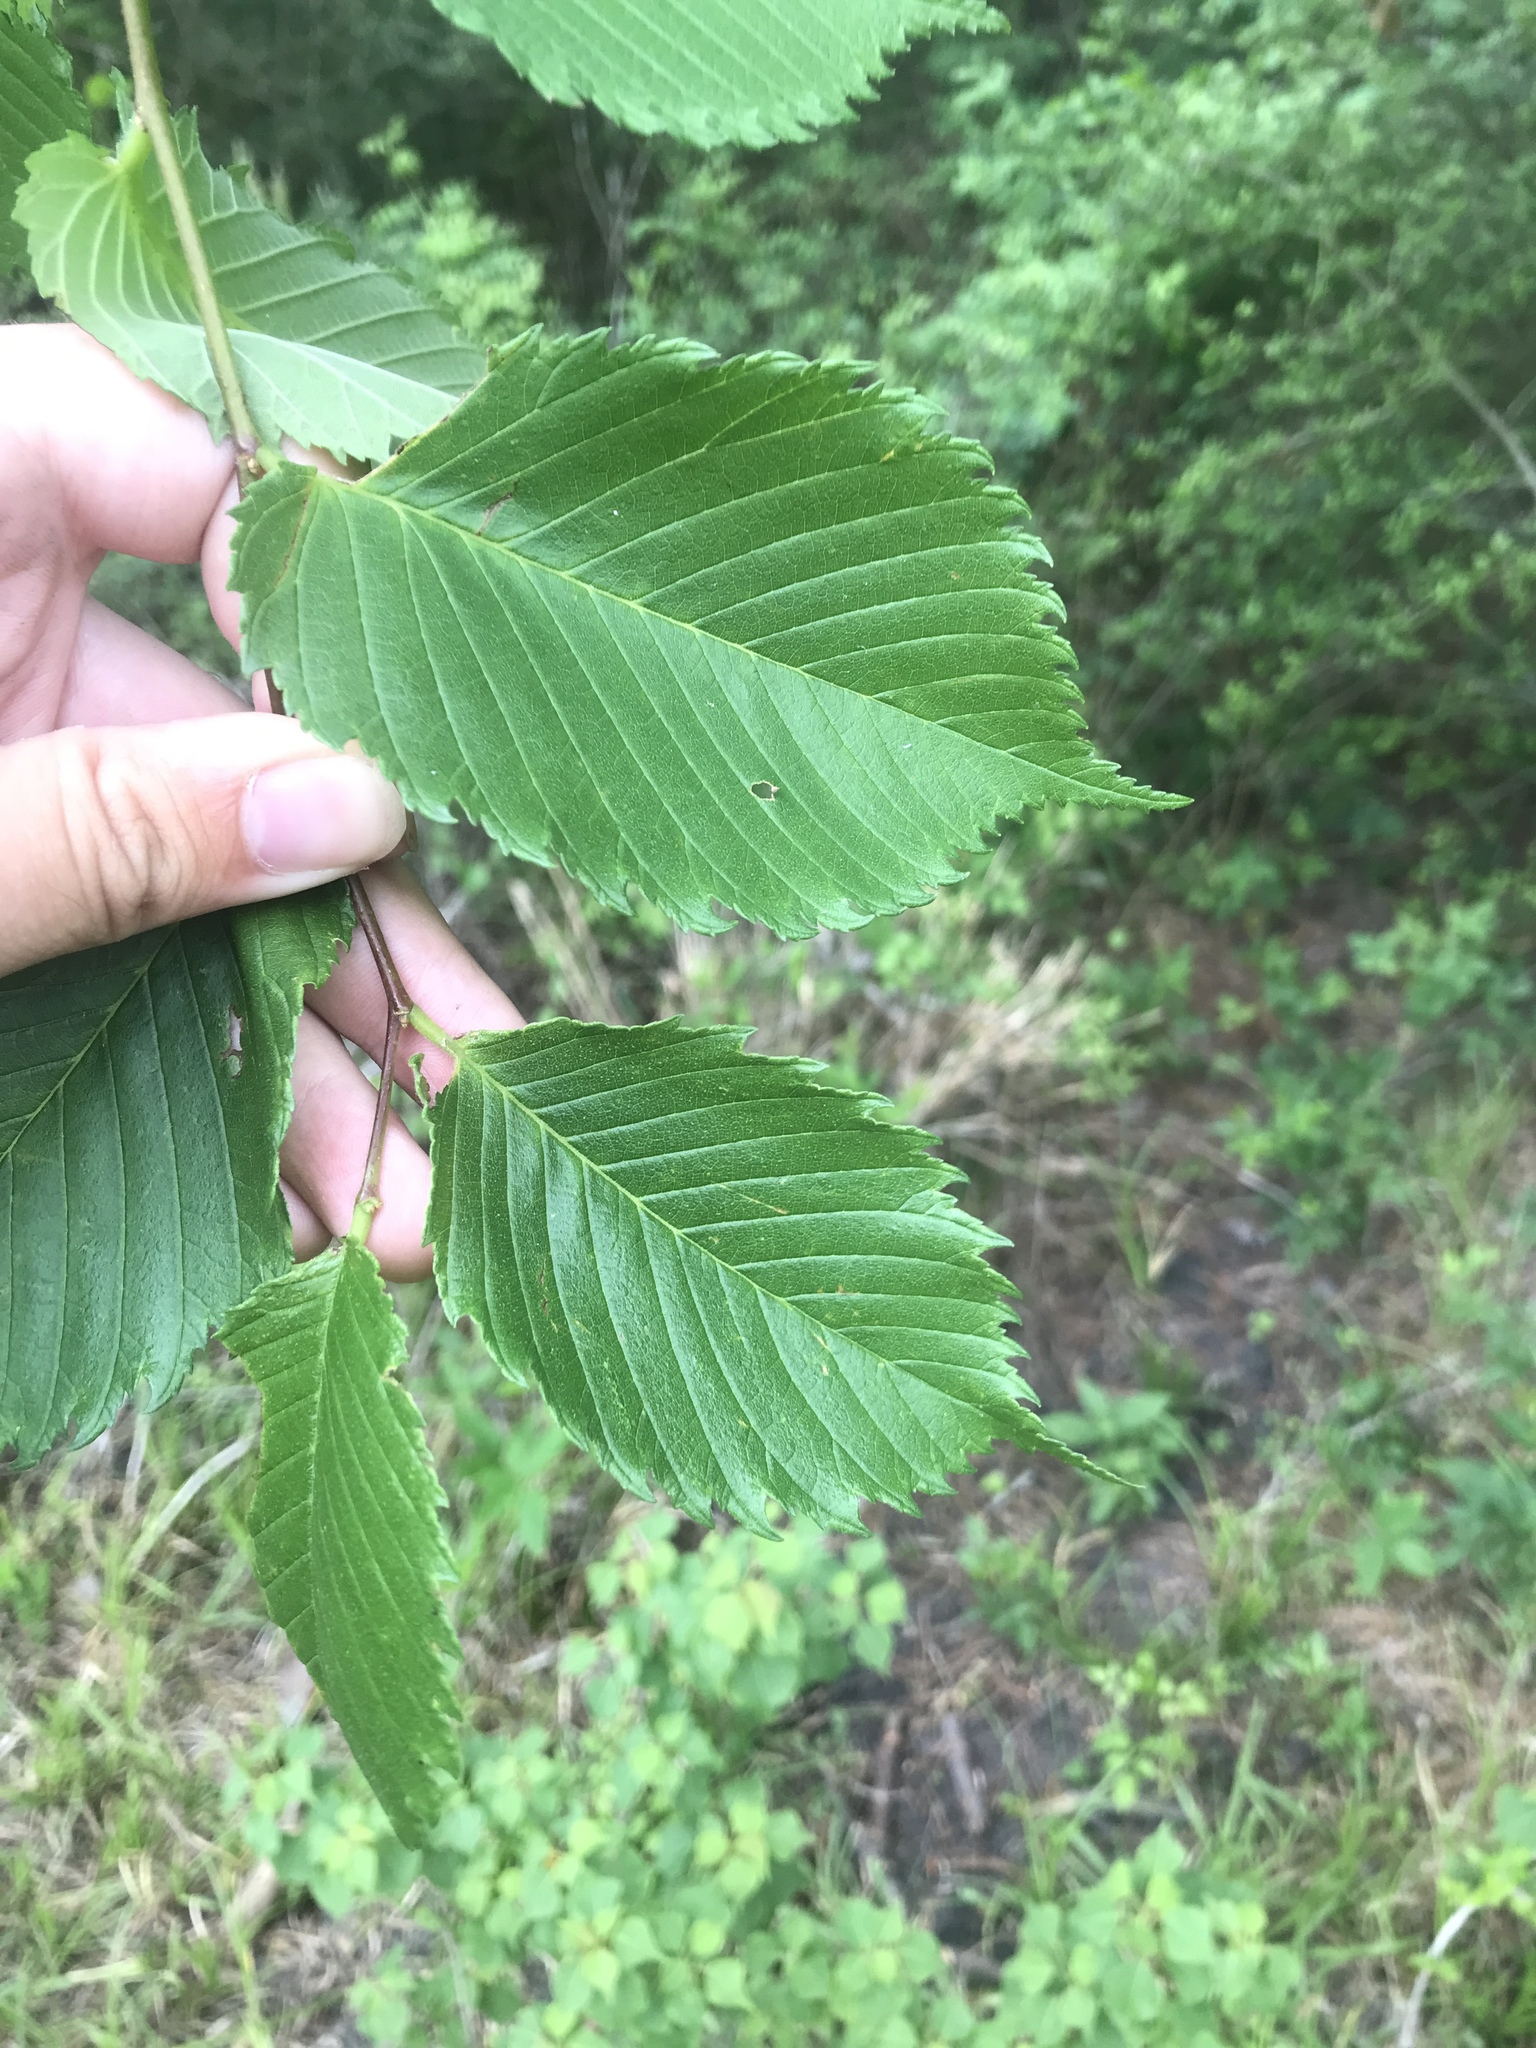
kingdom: Plantae
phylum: Tracheophyta
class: Magnoliopsida
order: Rosales
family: Ulmaceae
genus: Ulmus
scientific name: Ulmus americana
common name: American elm
